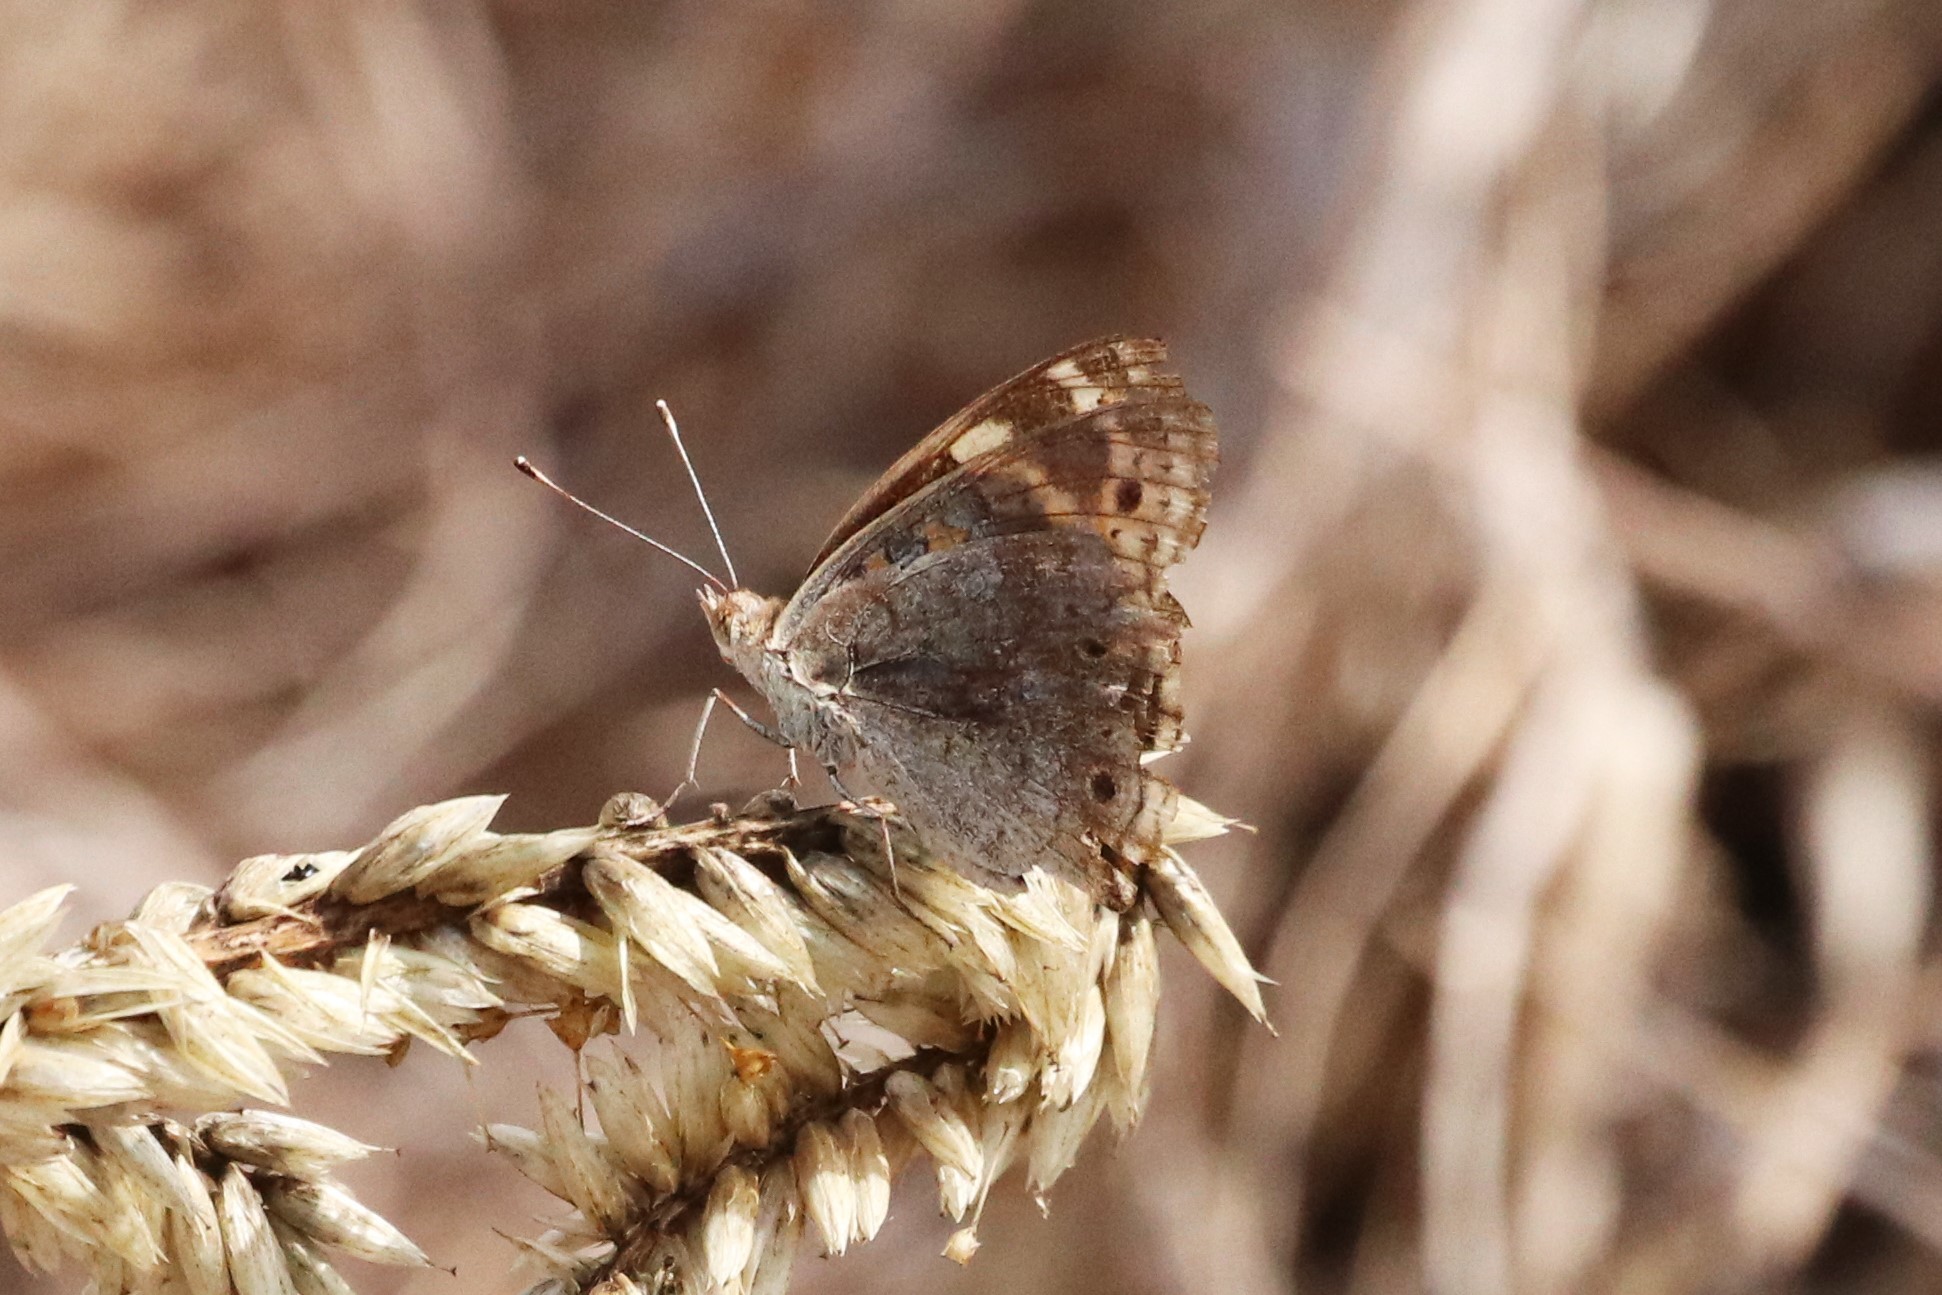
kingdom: Animalia
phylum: Arthropoda
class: Insecta
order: Lepidoptera
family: Nymphalidae
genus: Junonia
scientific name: Junonia orithya
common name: Blue pansy
